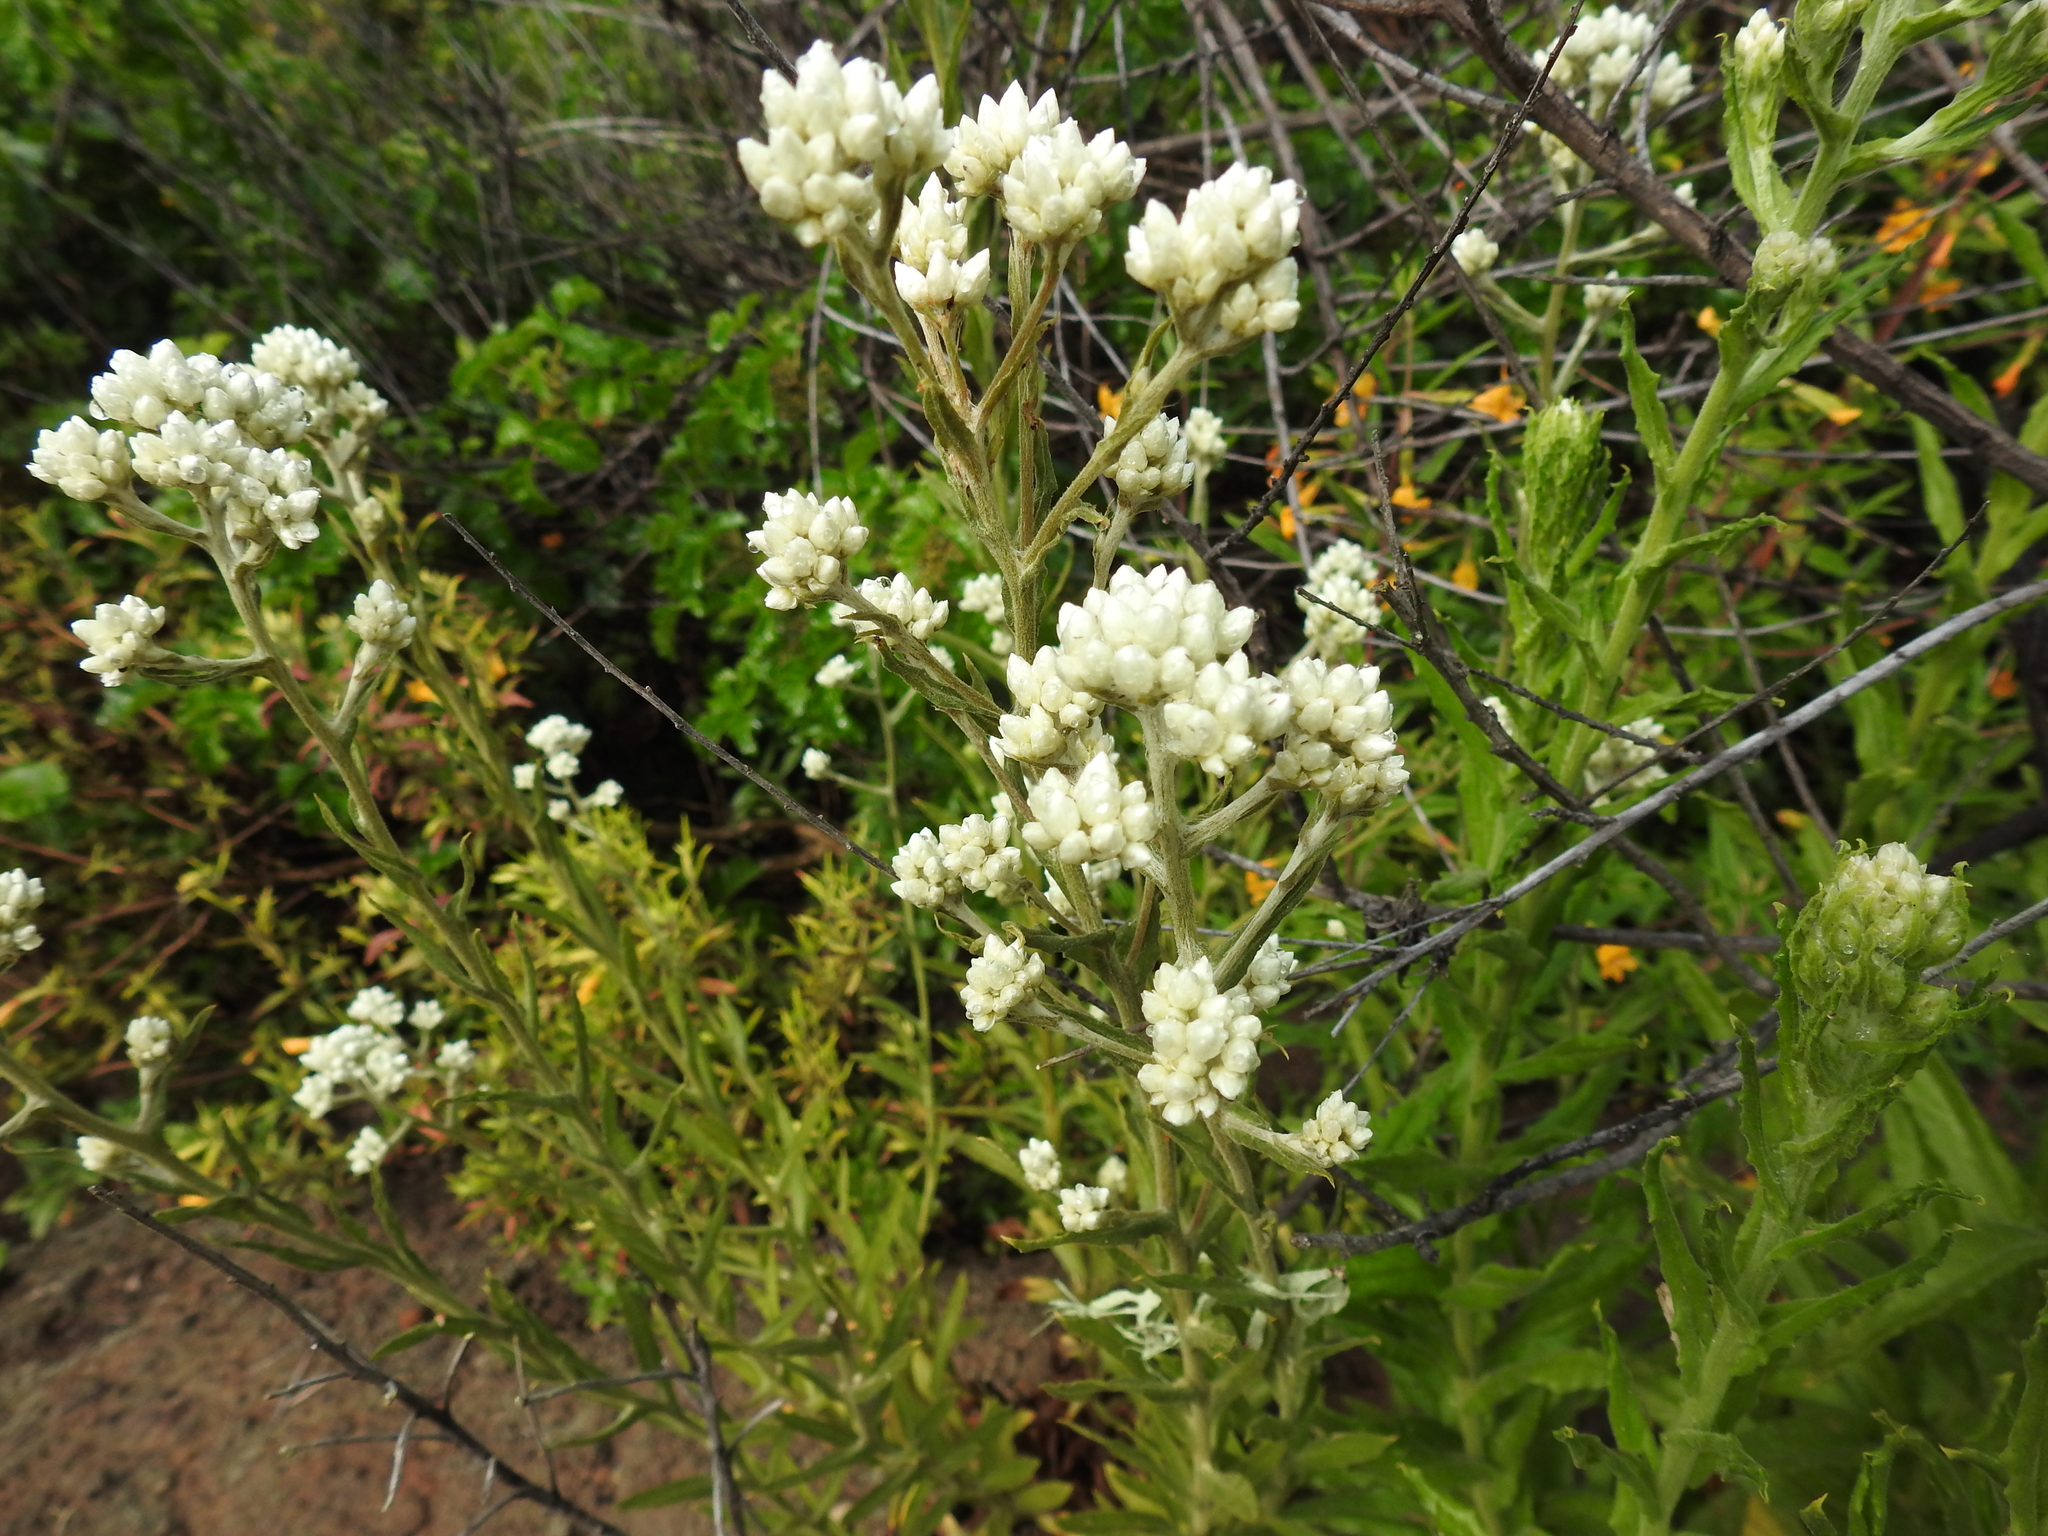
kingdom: Plantae
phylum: Tracheophyta
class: Magnoliopsida
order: Asterales
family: Asteraceae
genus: Pseudognaphalium
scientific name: Pseudognaphalium californicum
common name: California rabbit-tobacco
